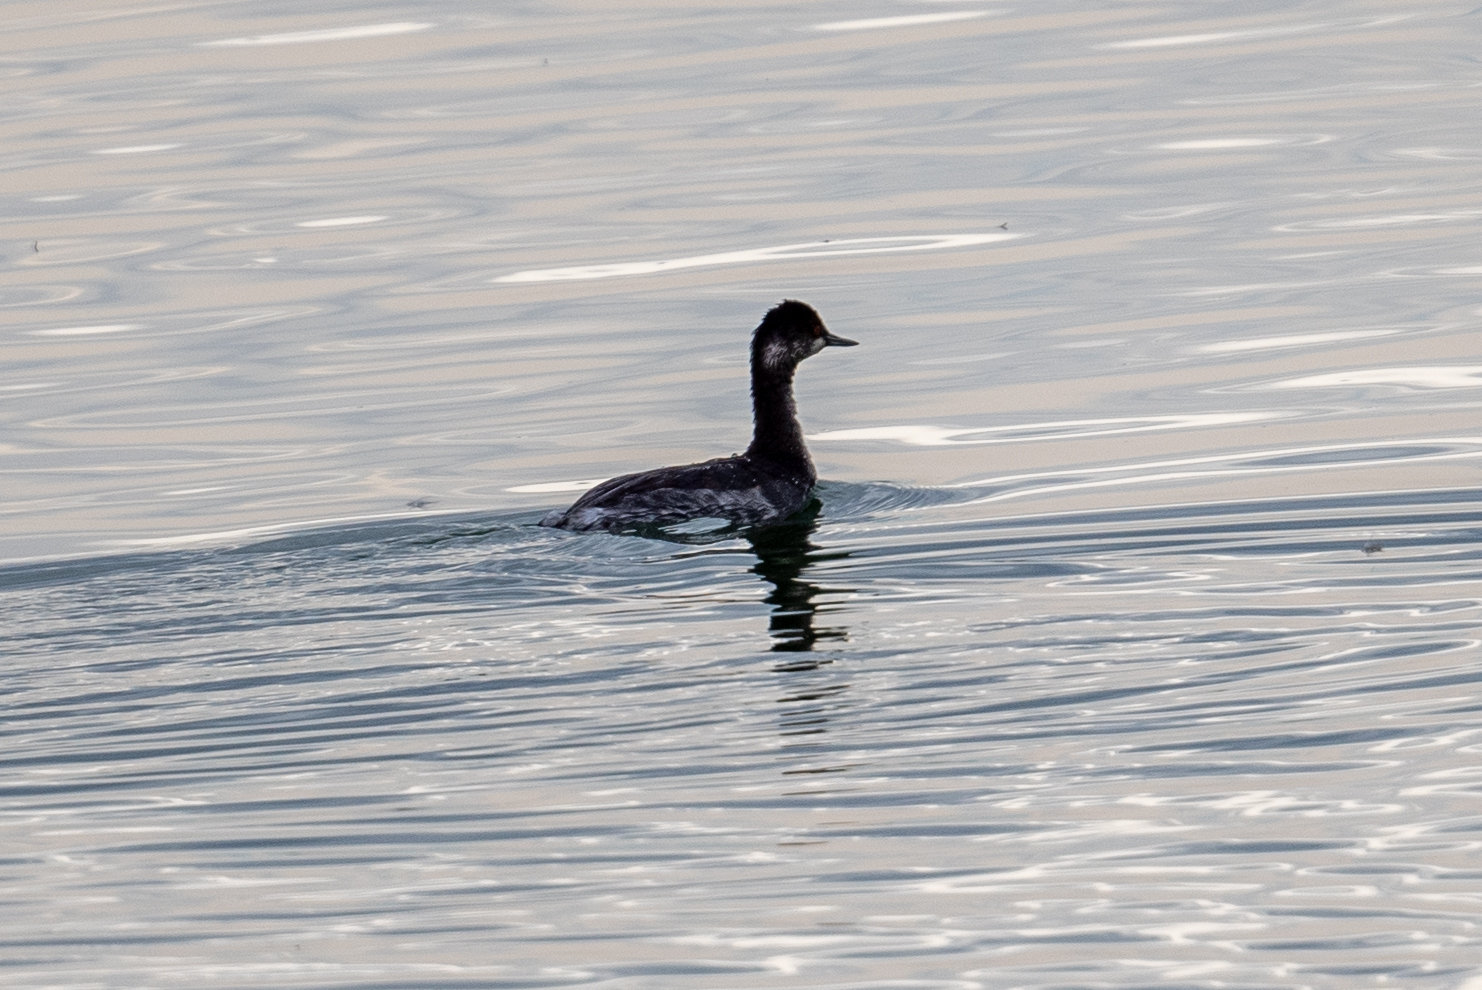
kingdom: Animalia
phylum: Chordata
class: Aves
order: Podicipediformes
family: Podicipedidae
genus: Podiceps
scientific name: Podiceps nigricollis
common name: Black-necked grebe
